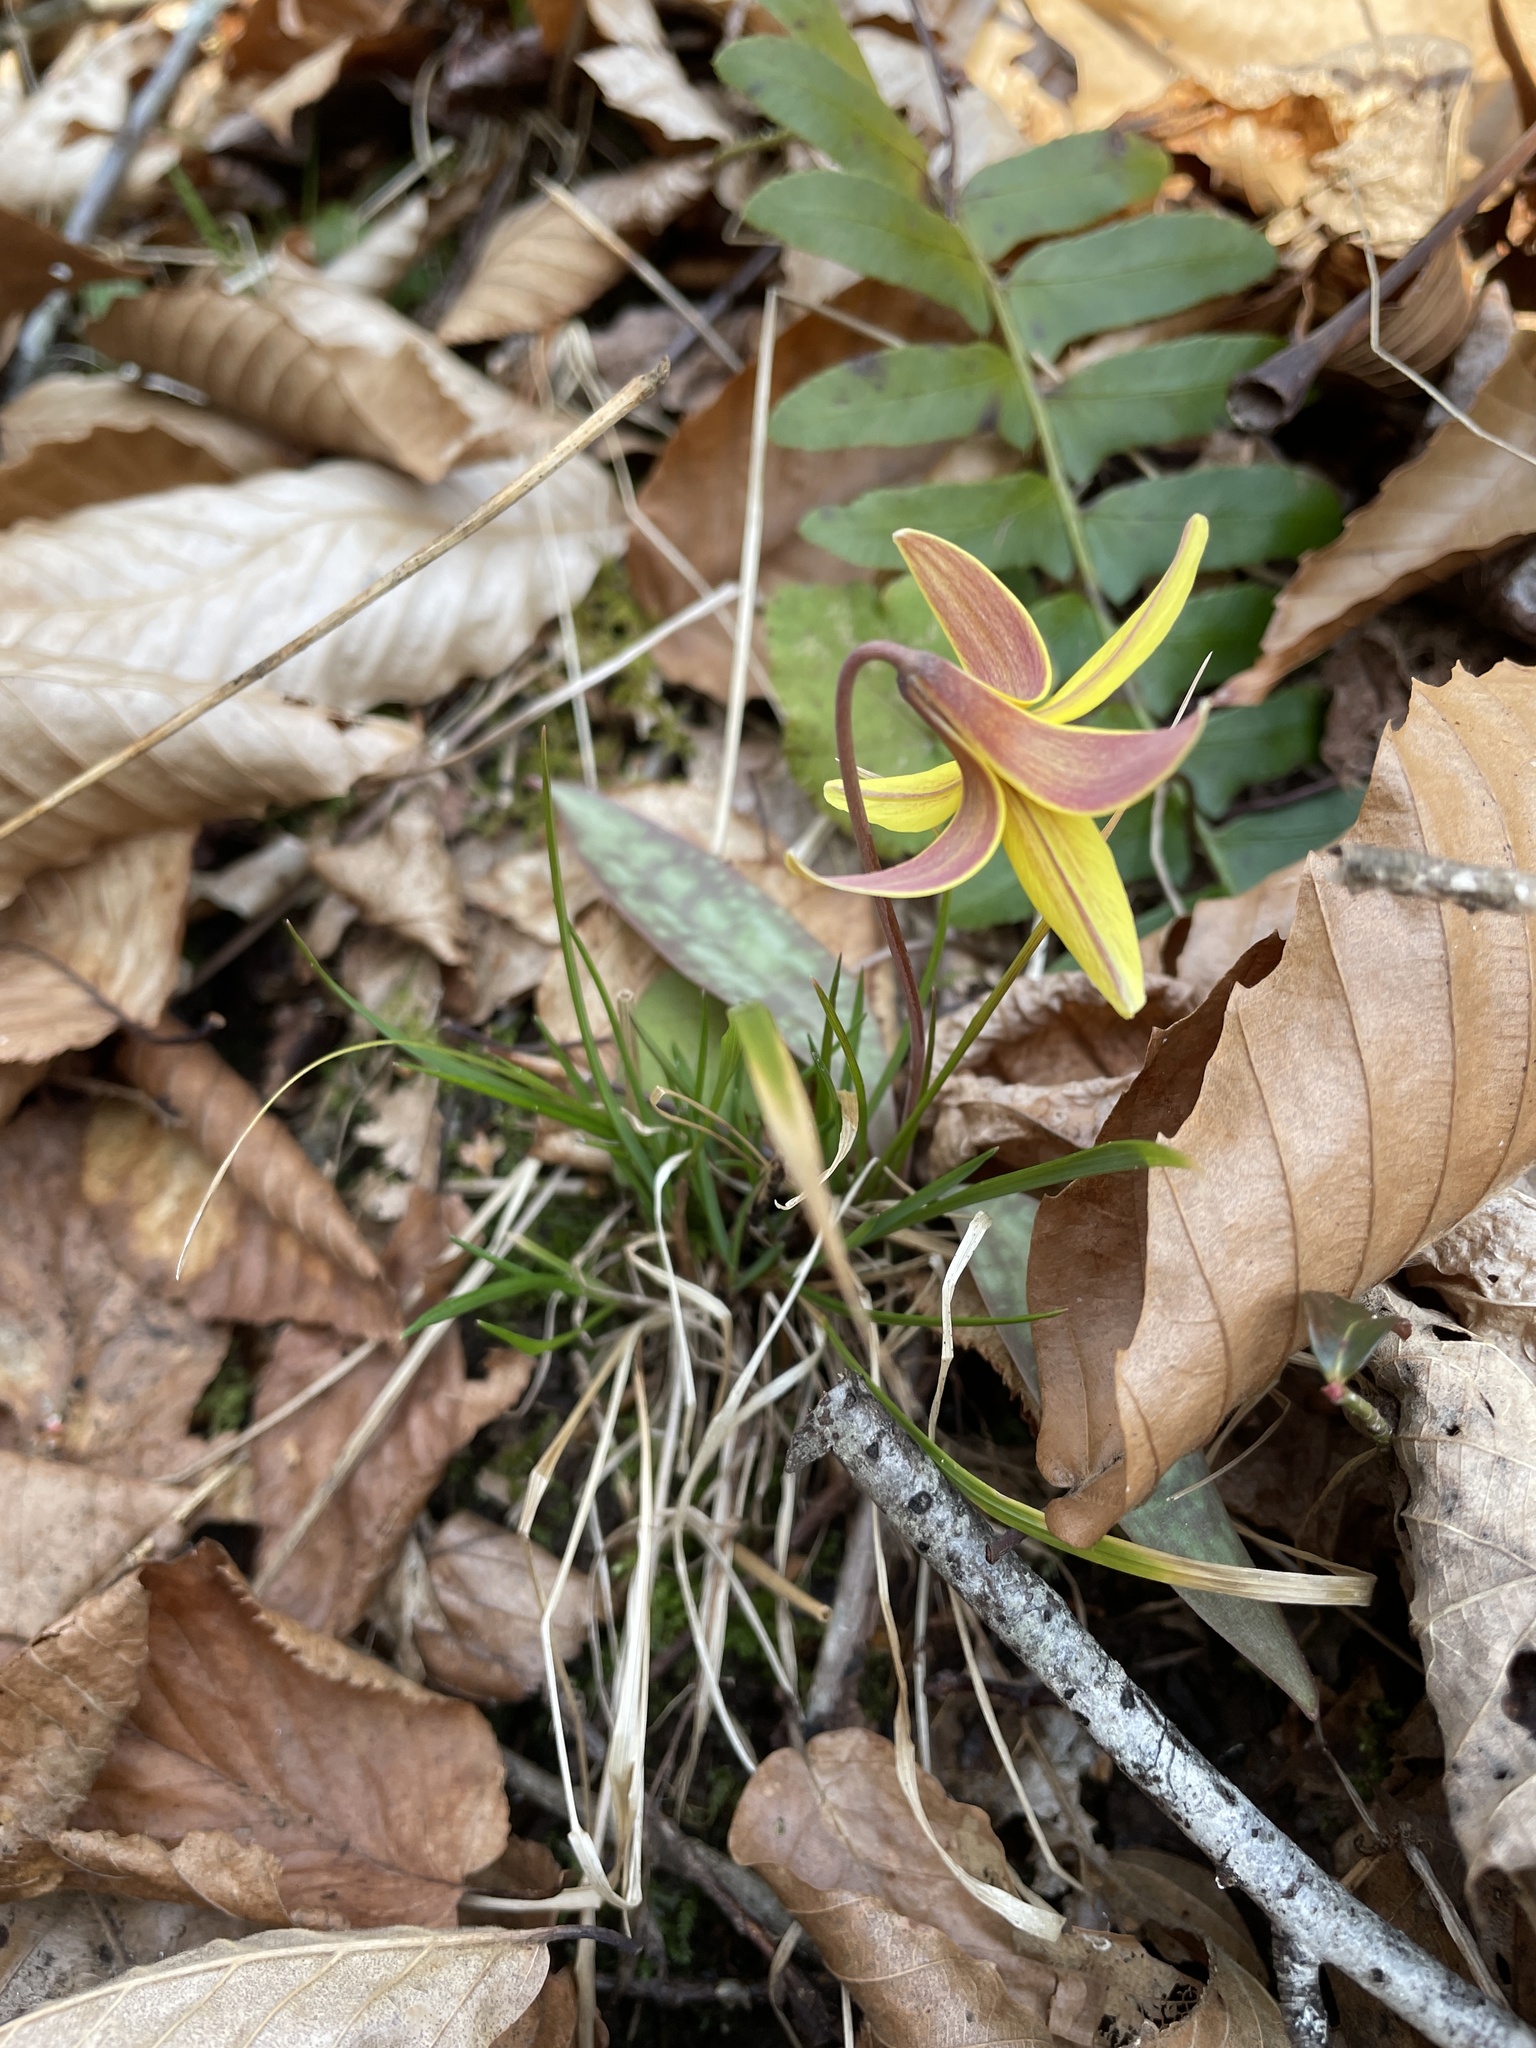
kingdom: Plantae
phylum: Tracheophyta
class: Liliopsida
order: Liliales
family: Liliaceae
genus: Erythronium
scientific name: Erythronium umbilicatum
